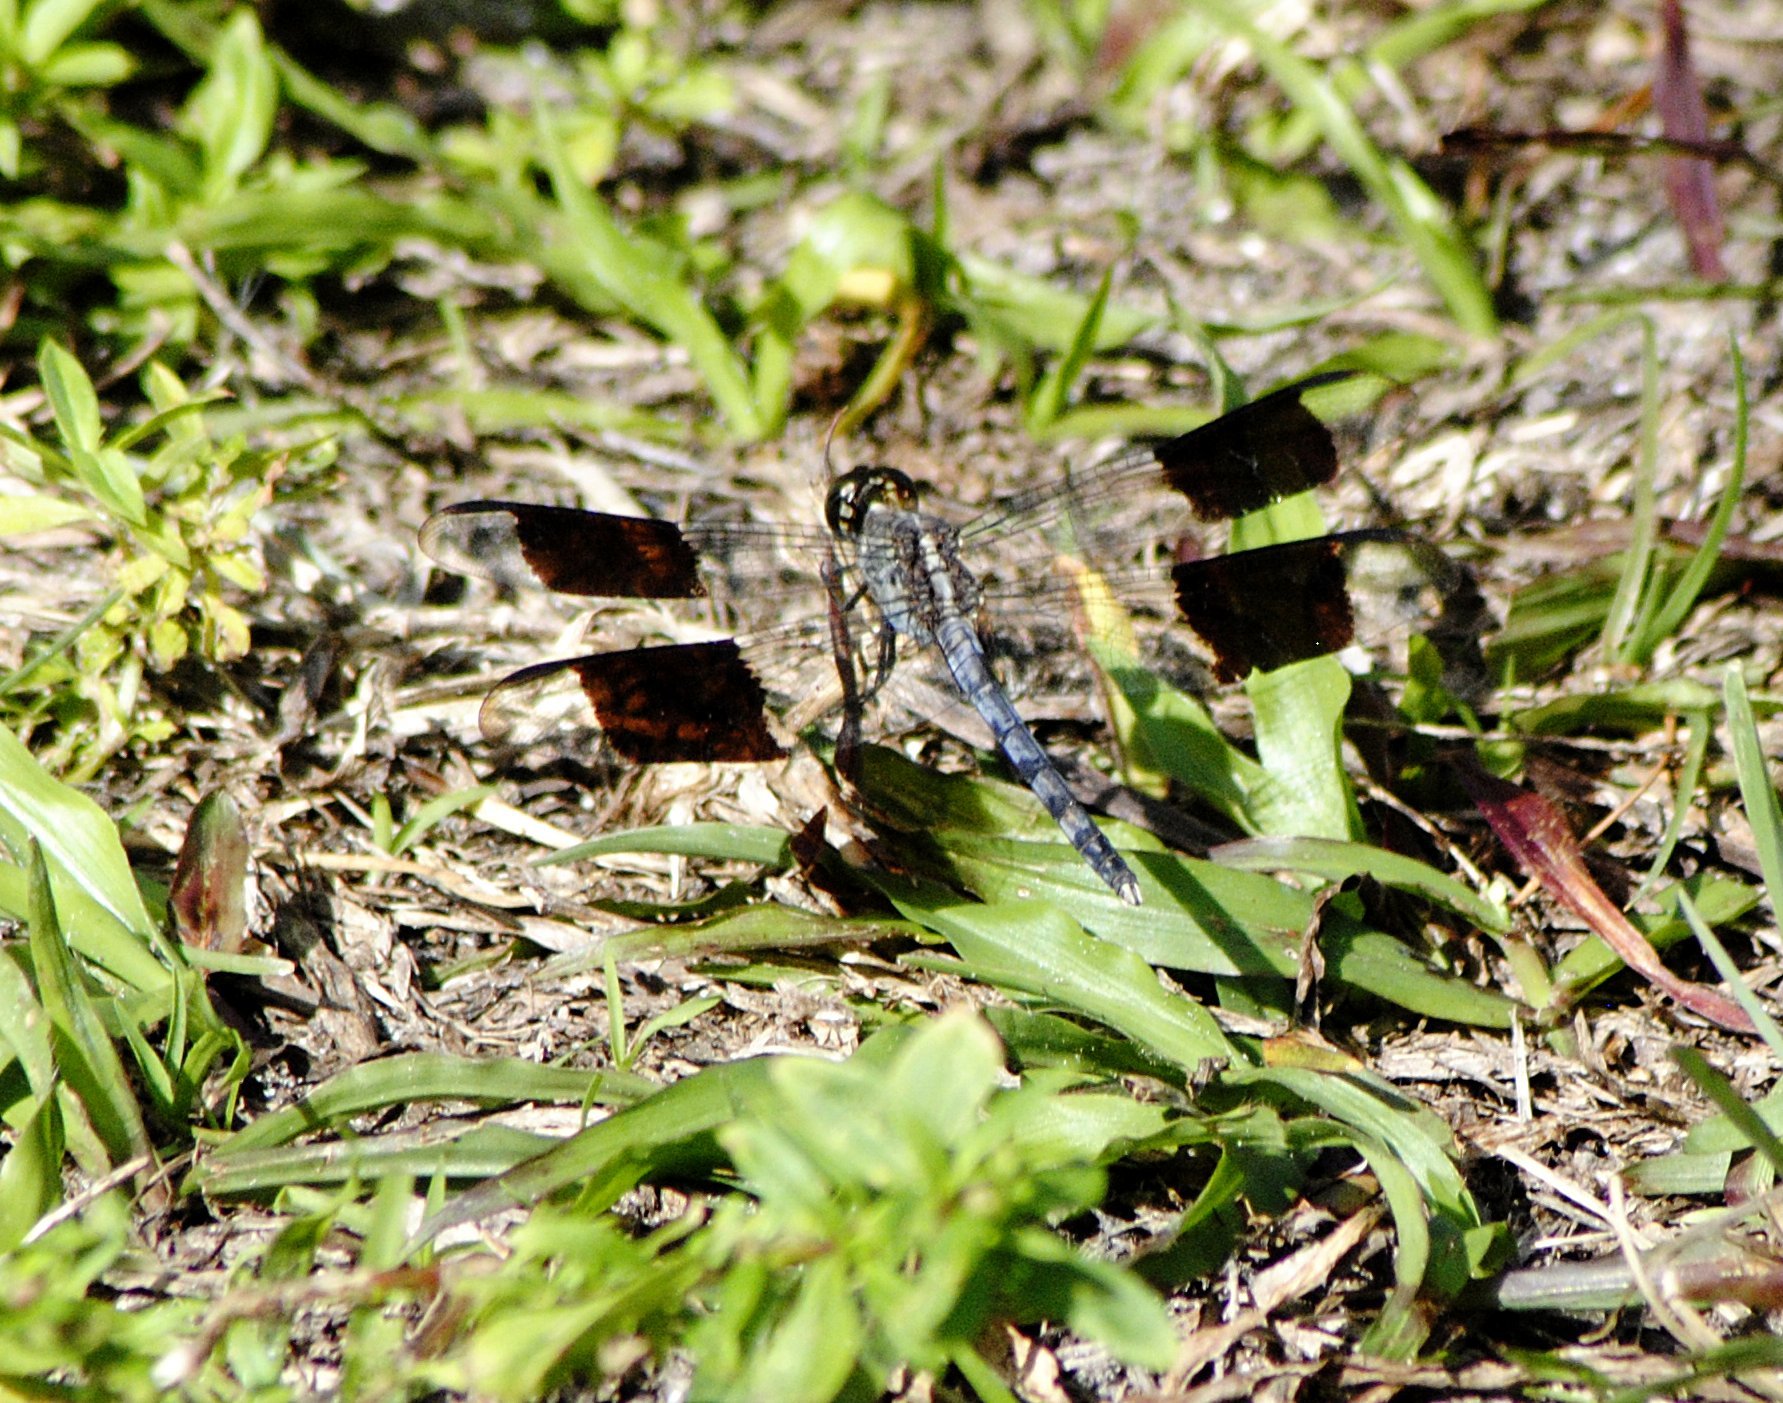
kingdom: Animalia
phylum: Arthropoda
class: Insecta
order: Odonata
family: Libellulidae
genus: Erythrodiplax
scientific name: Erythrodiplax umbrata
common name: Band-winged dragonlet
